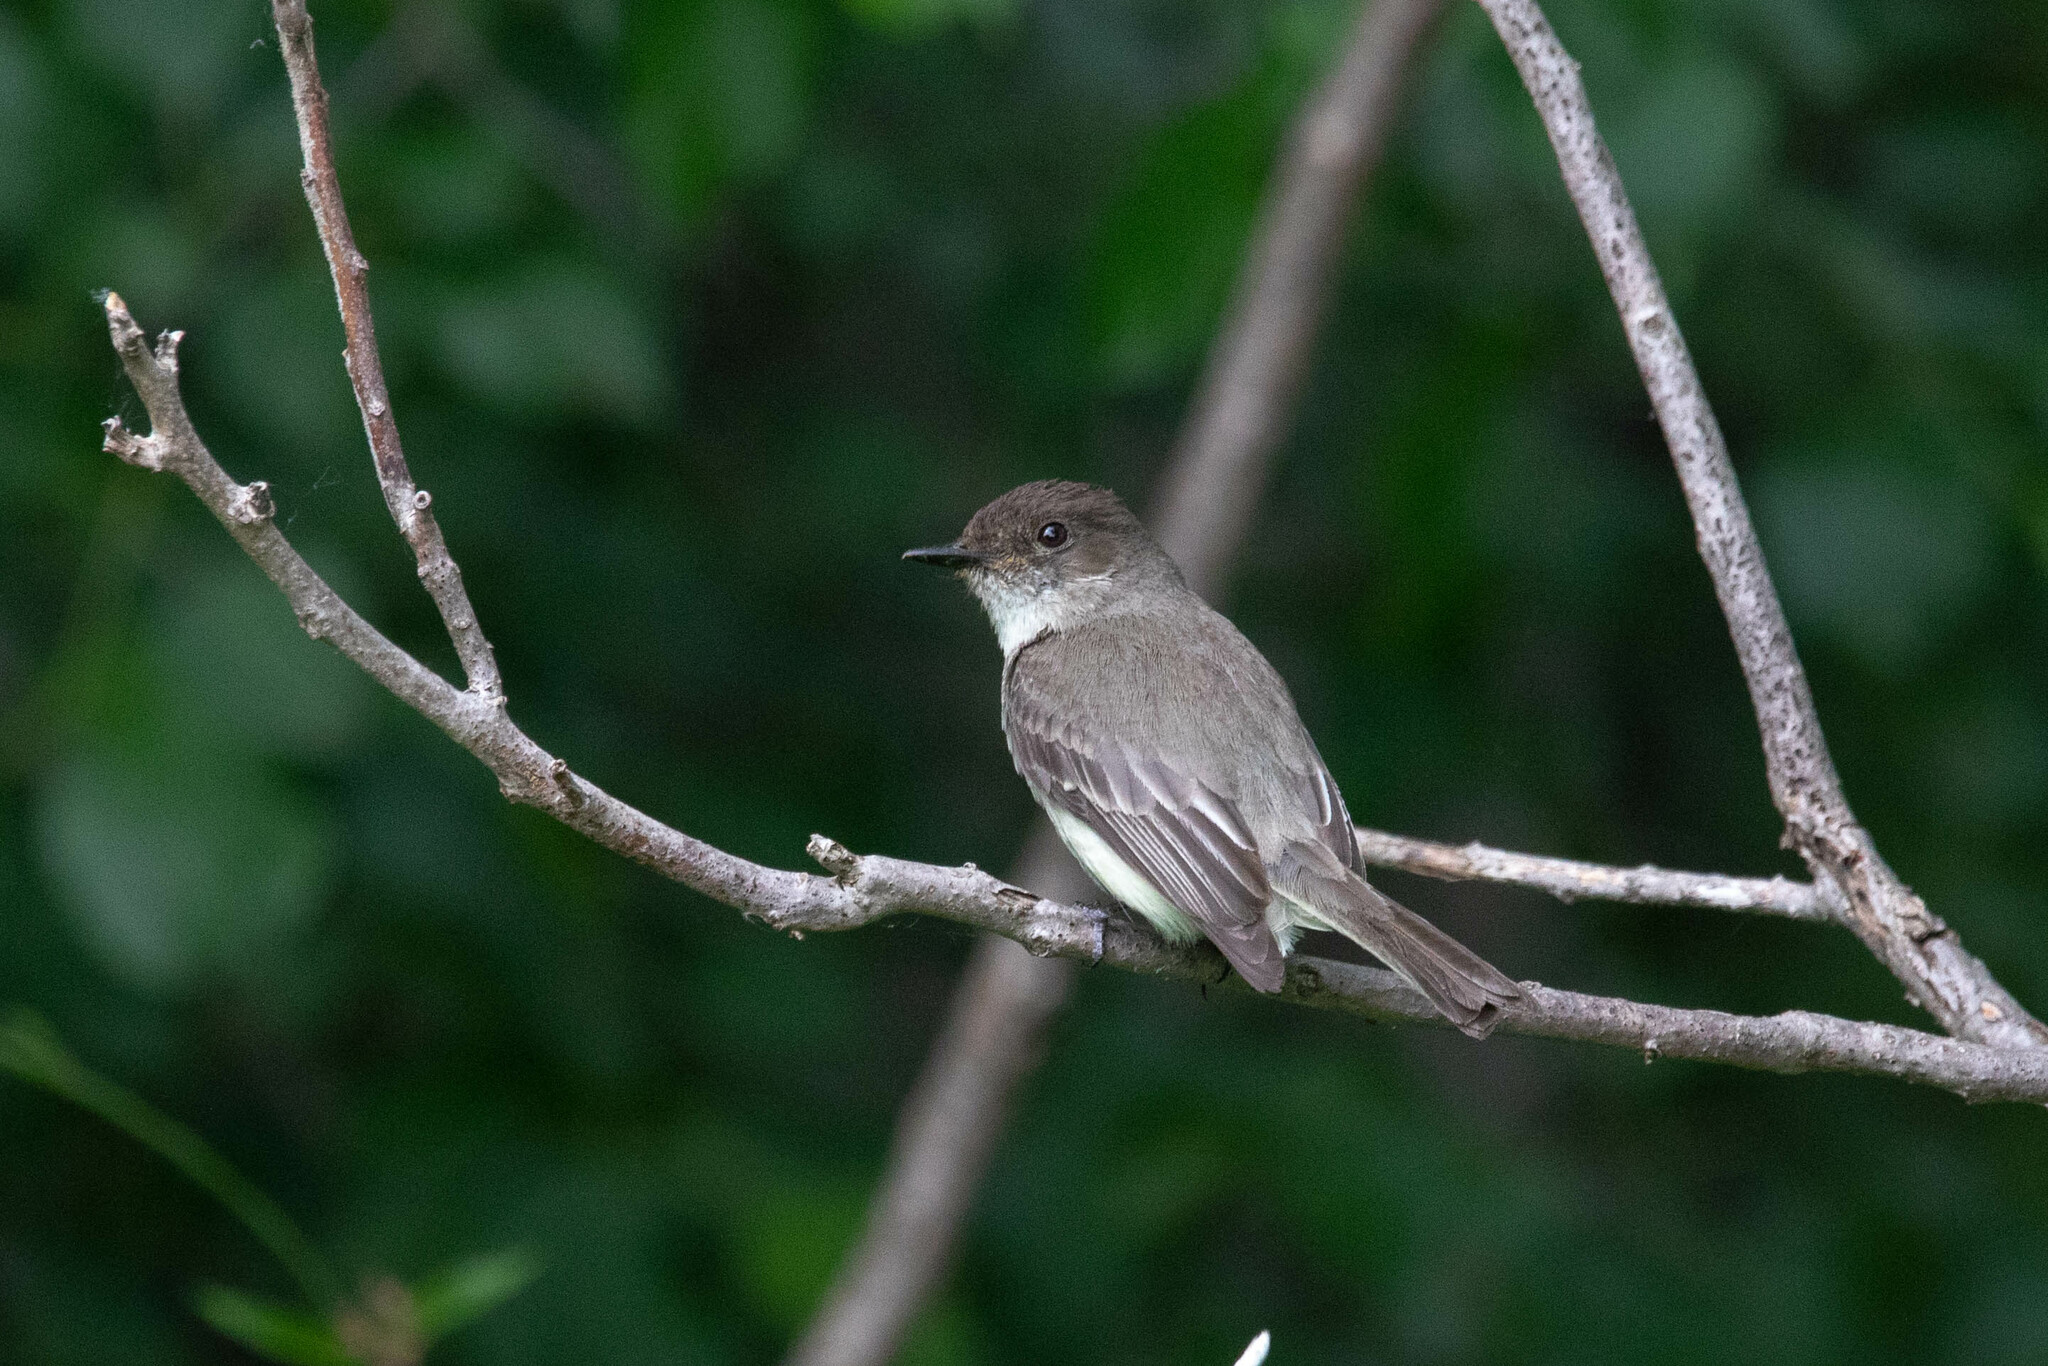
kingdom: Animalia
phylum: Chordata
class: Aves
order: Passeriformes
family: Tyrannidae
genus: Sayornis
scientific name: Sayornis phoebe
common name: Eastern phoebe
